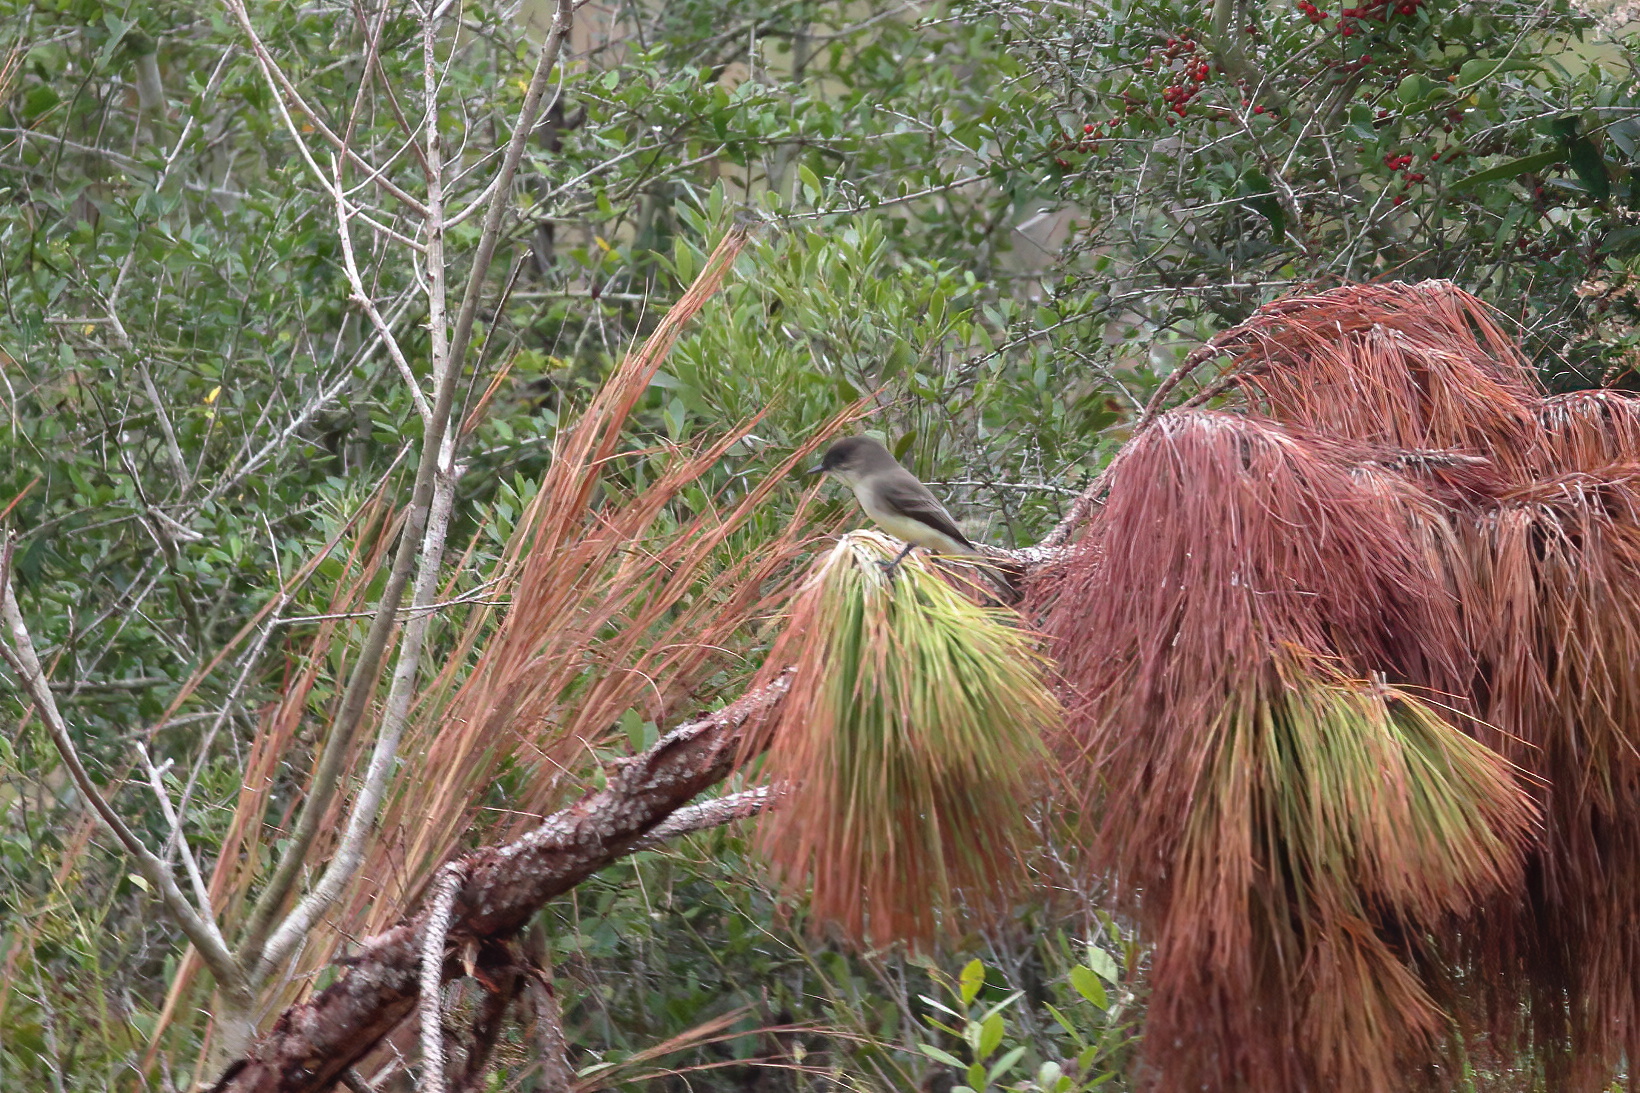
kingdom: Animalia
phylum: Chordata
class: Aves
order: Passeriformes
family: Tyrannidae
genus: Sayornis
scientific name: Sayornis phoebe
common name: Eastern phoebe
